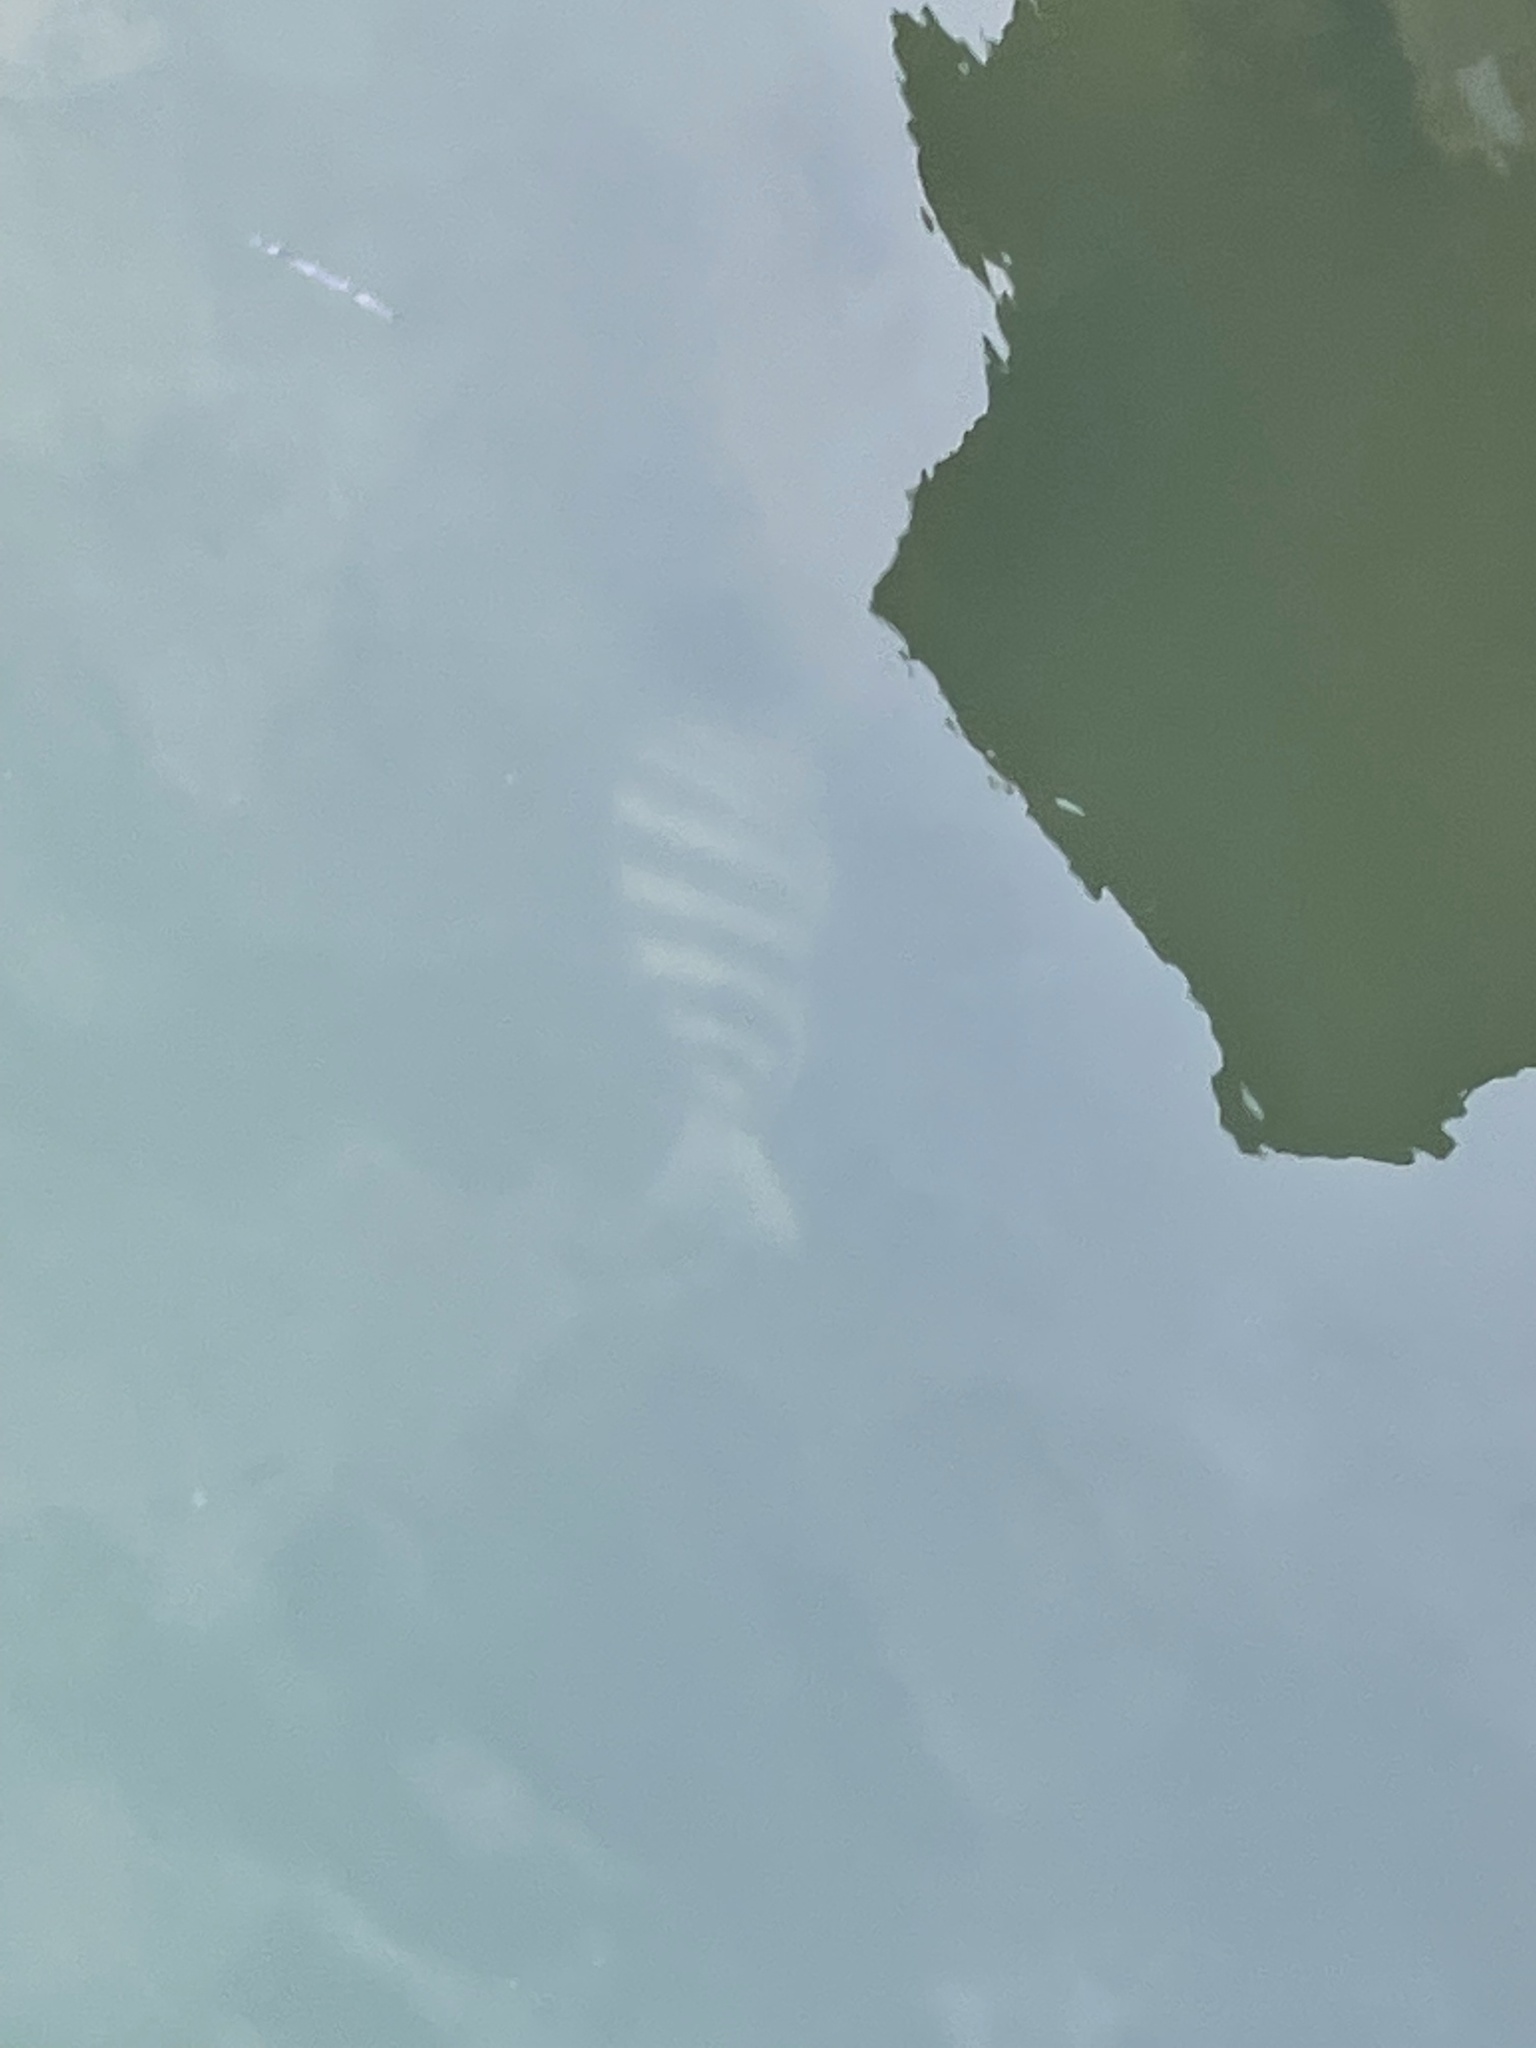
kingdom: Animalia
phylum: Chordata
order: Perciformes
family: Sparidae
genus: Archosargus
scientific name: Archosargus probatocephalus
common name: Sheepshead
